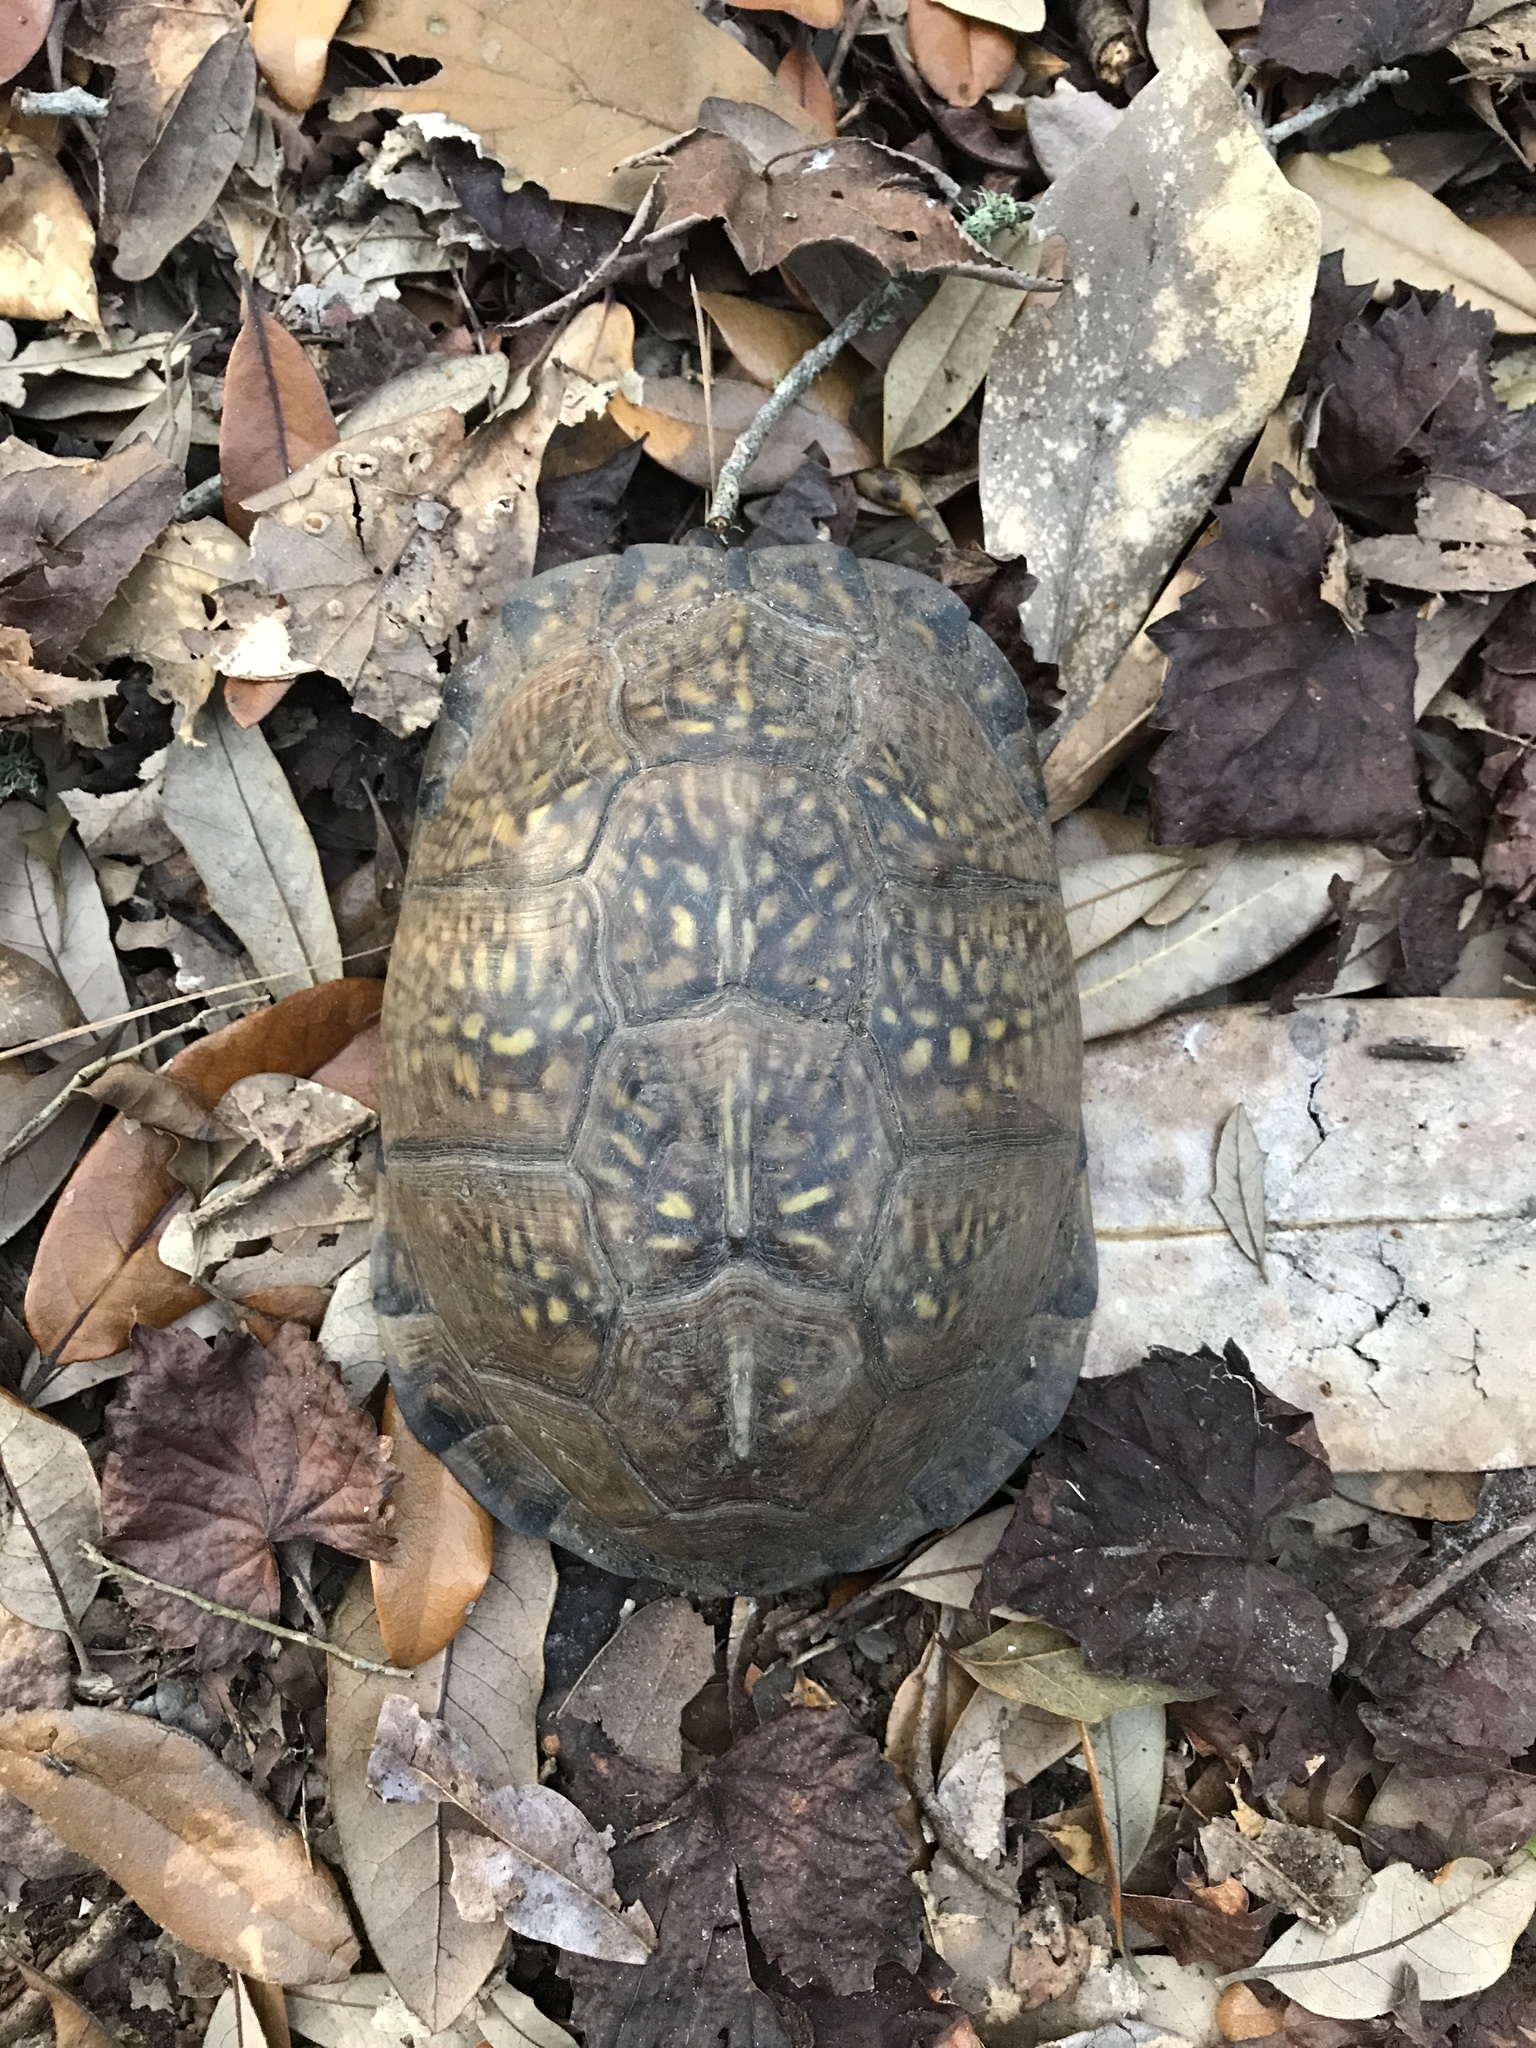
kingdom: Animalia
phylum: Chordata
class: Testudines
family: Emydidae
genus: Terrapene
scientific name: Terrapene carolina
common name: Common box turtle
